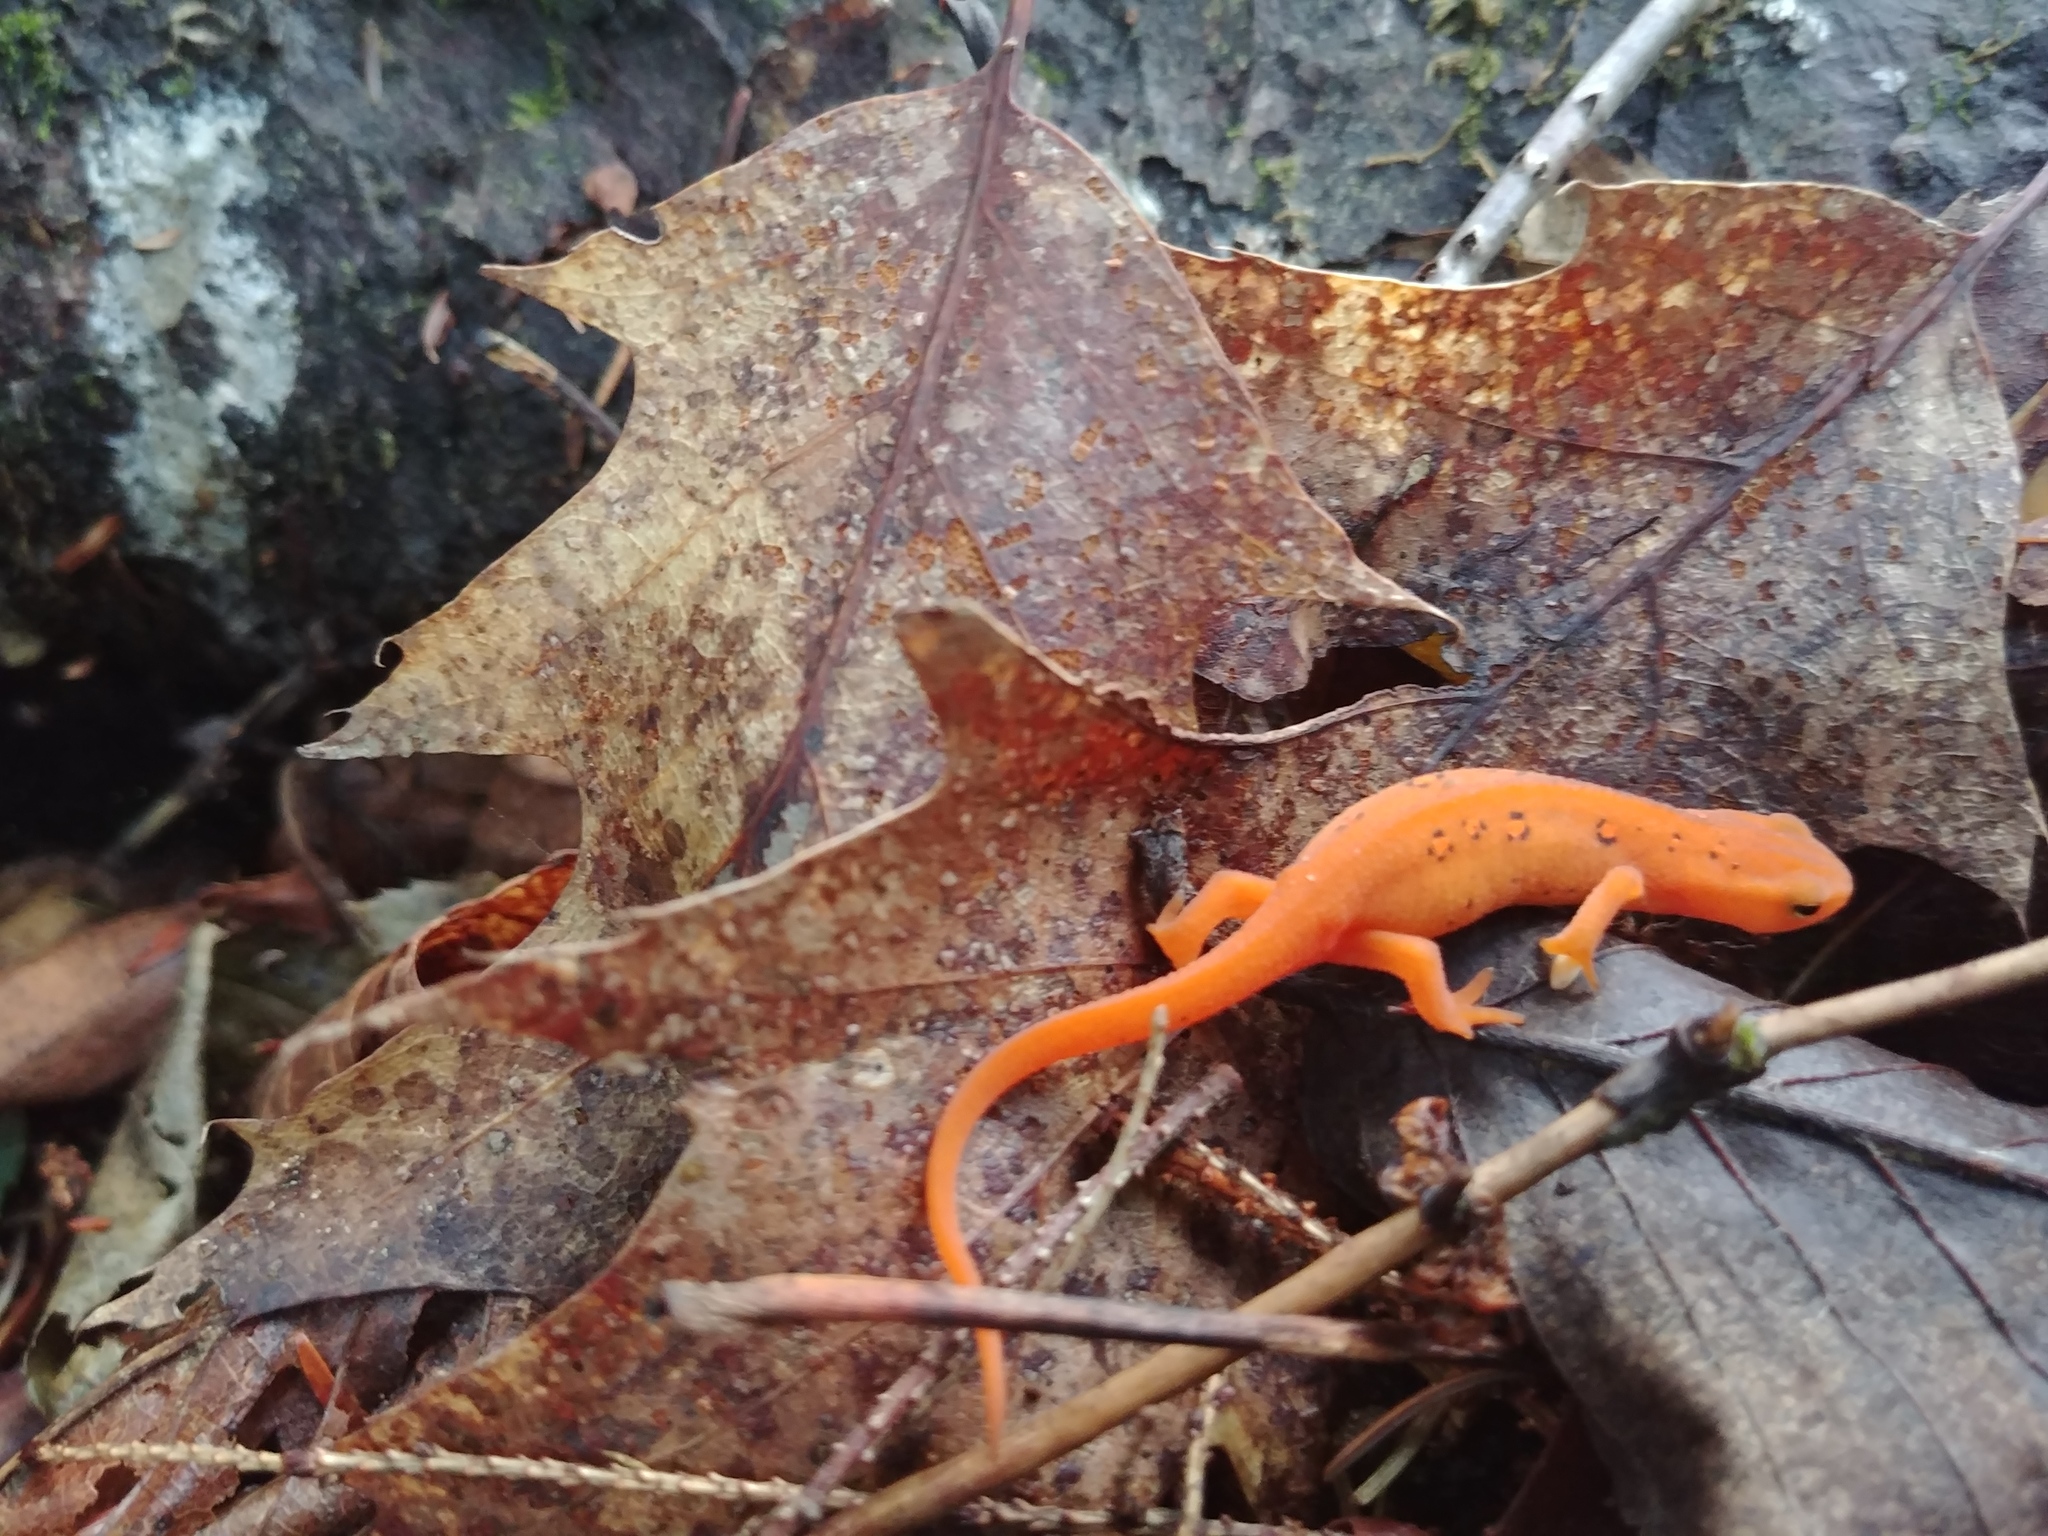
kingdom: Animalia
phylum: Chordata
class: Amphibia
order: Caudata
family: Salamandridae
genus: Notophthalmus
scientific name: Notophthalmus viridescens
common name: Eastern newt
